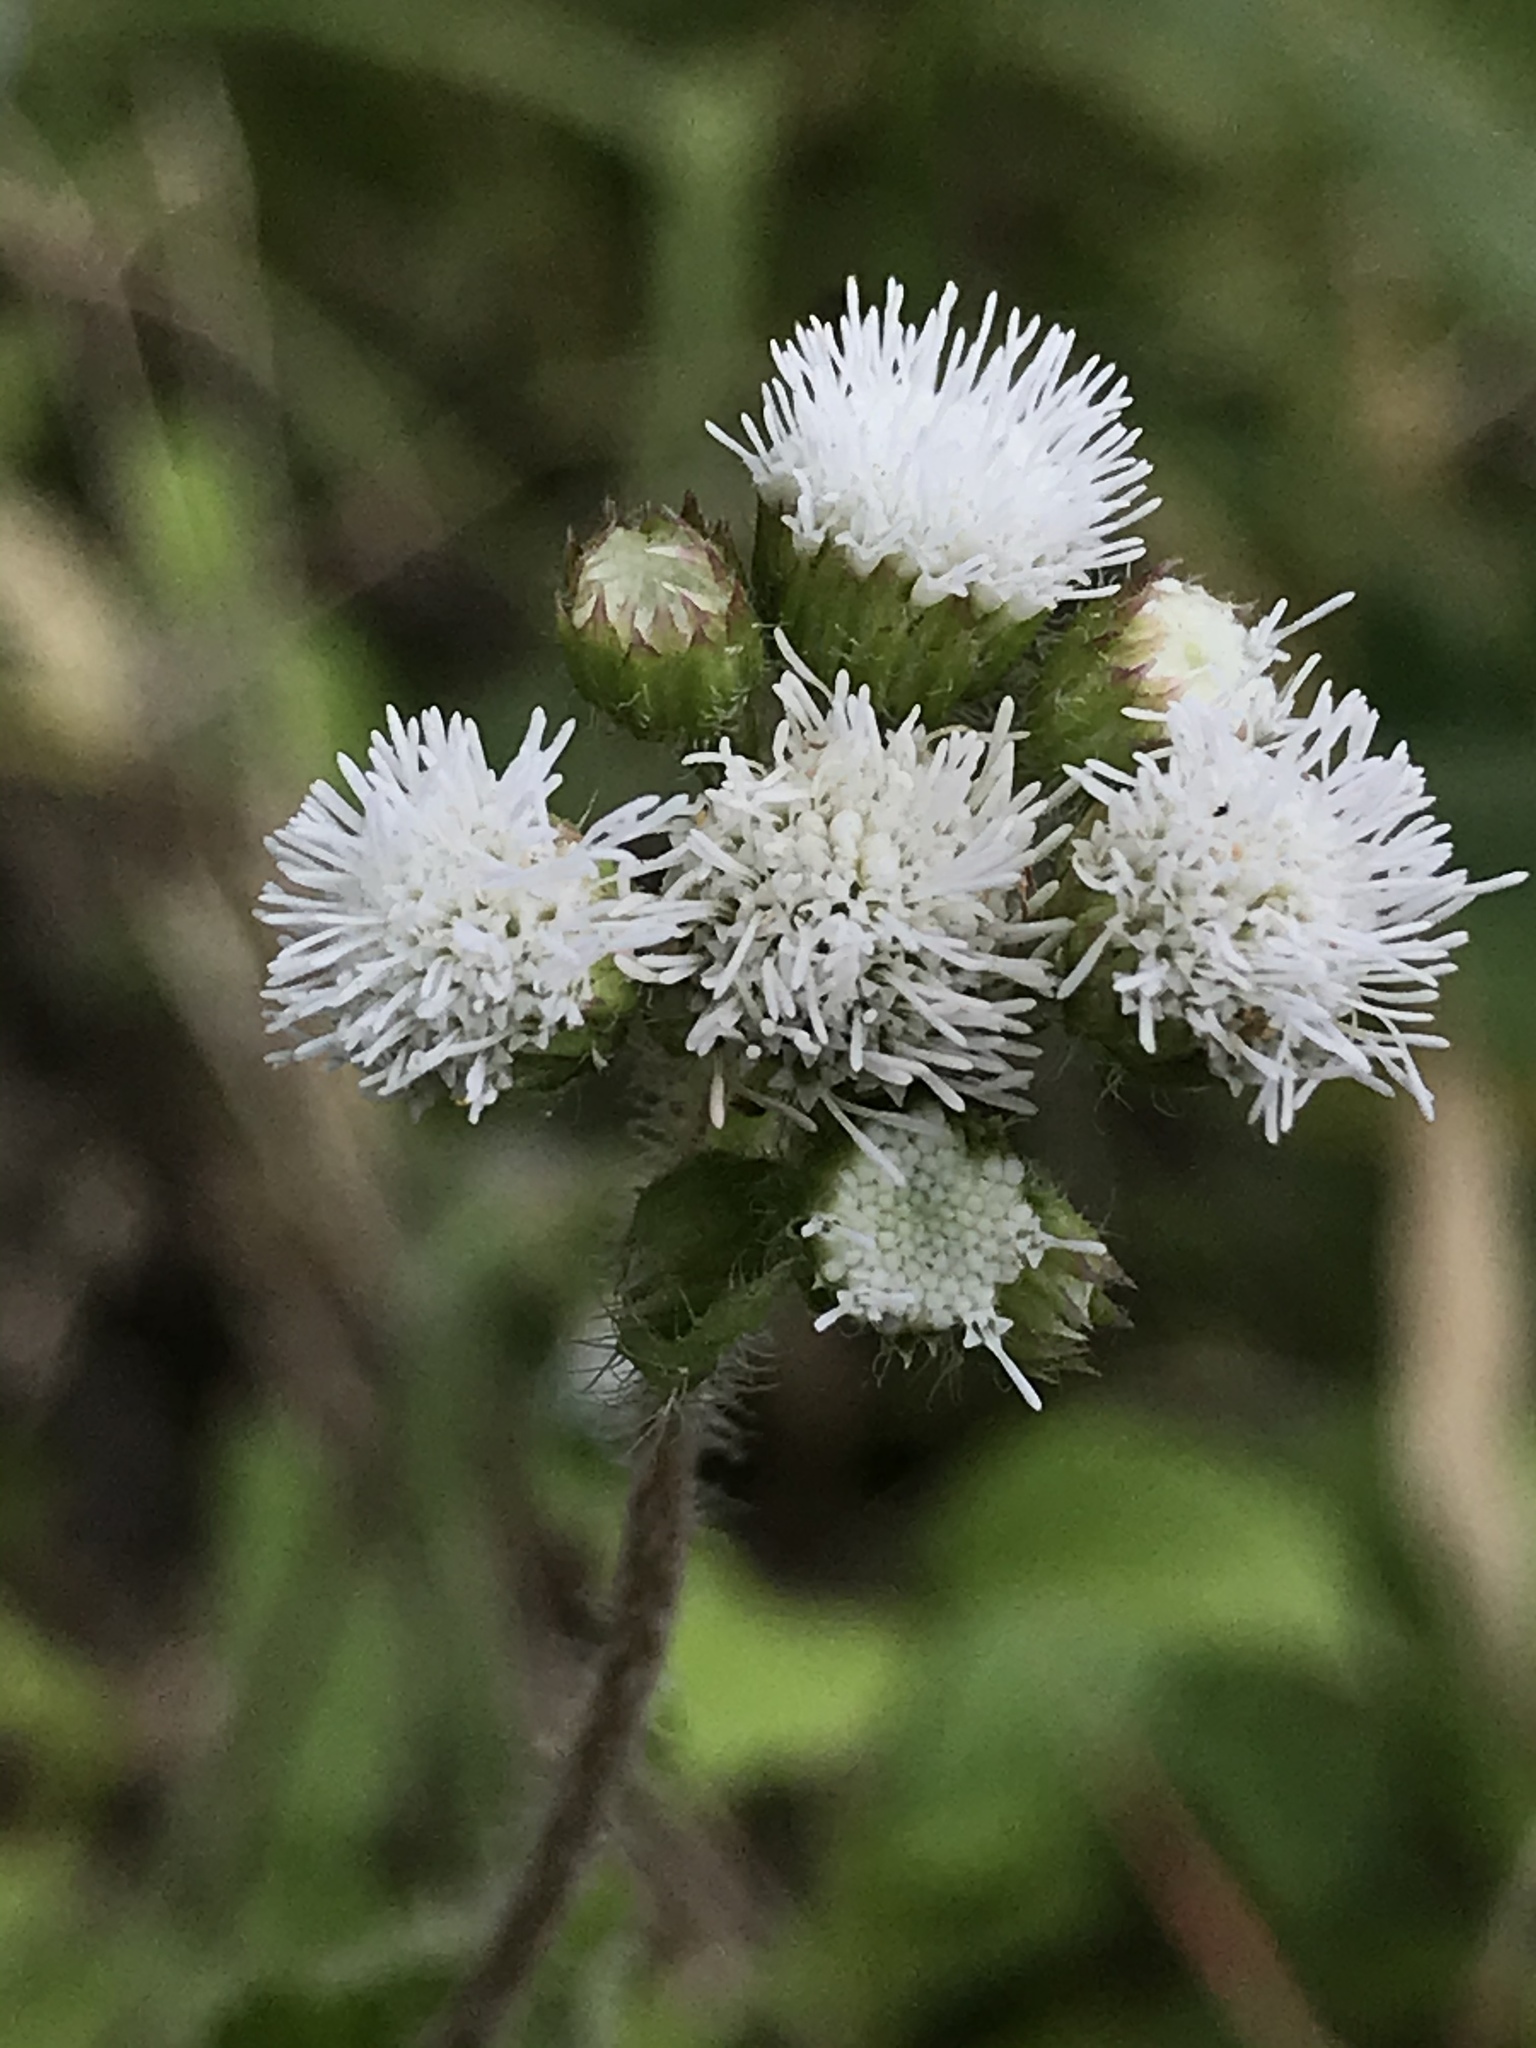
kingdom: Plantae
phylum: Tracheophyta
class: Magnoliopsida
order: Asterales
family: Asteraceae
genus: Ageratum
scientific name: Ageratum conyzoides
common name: Tropical whiteweed
